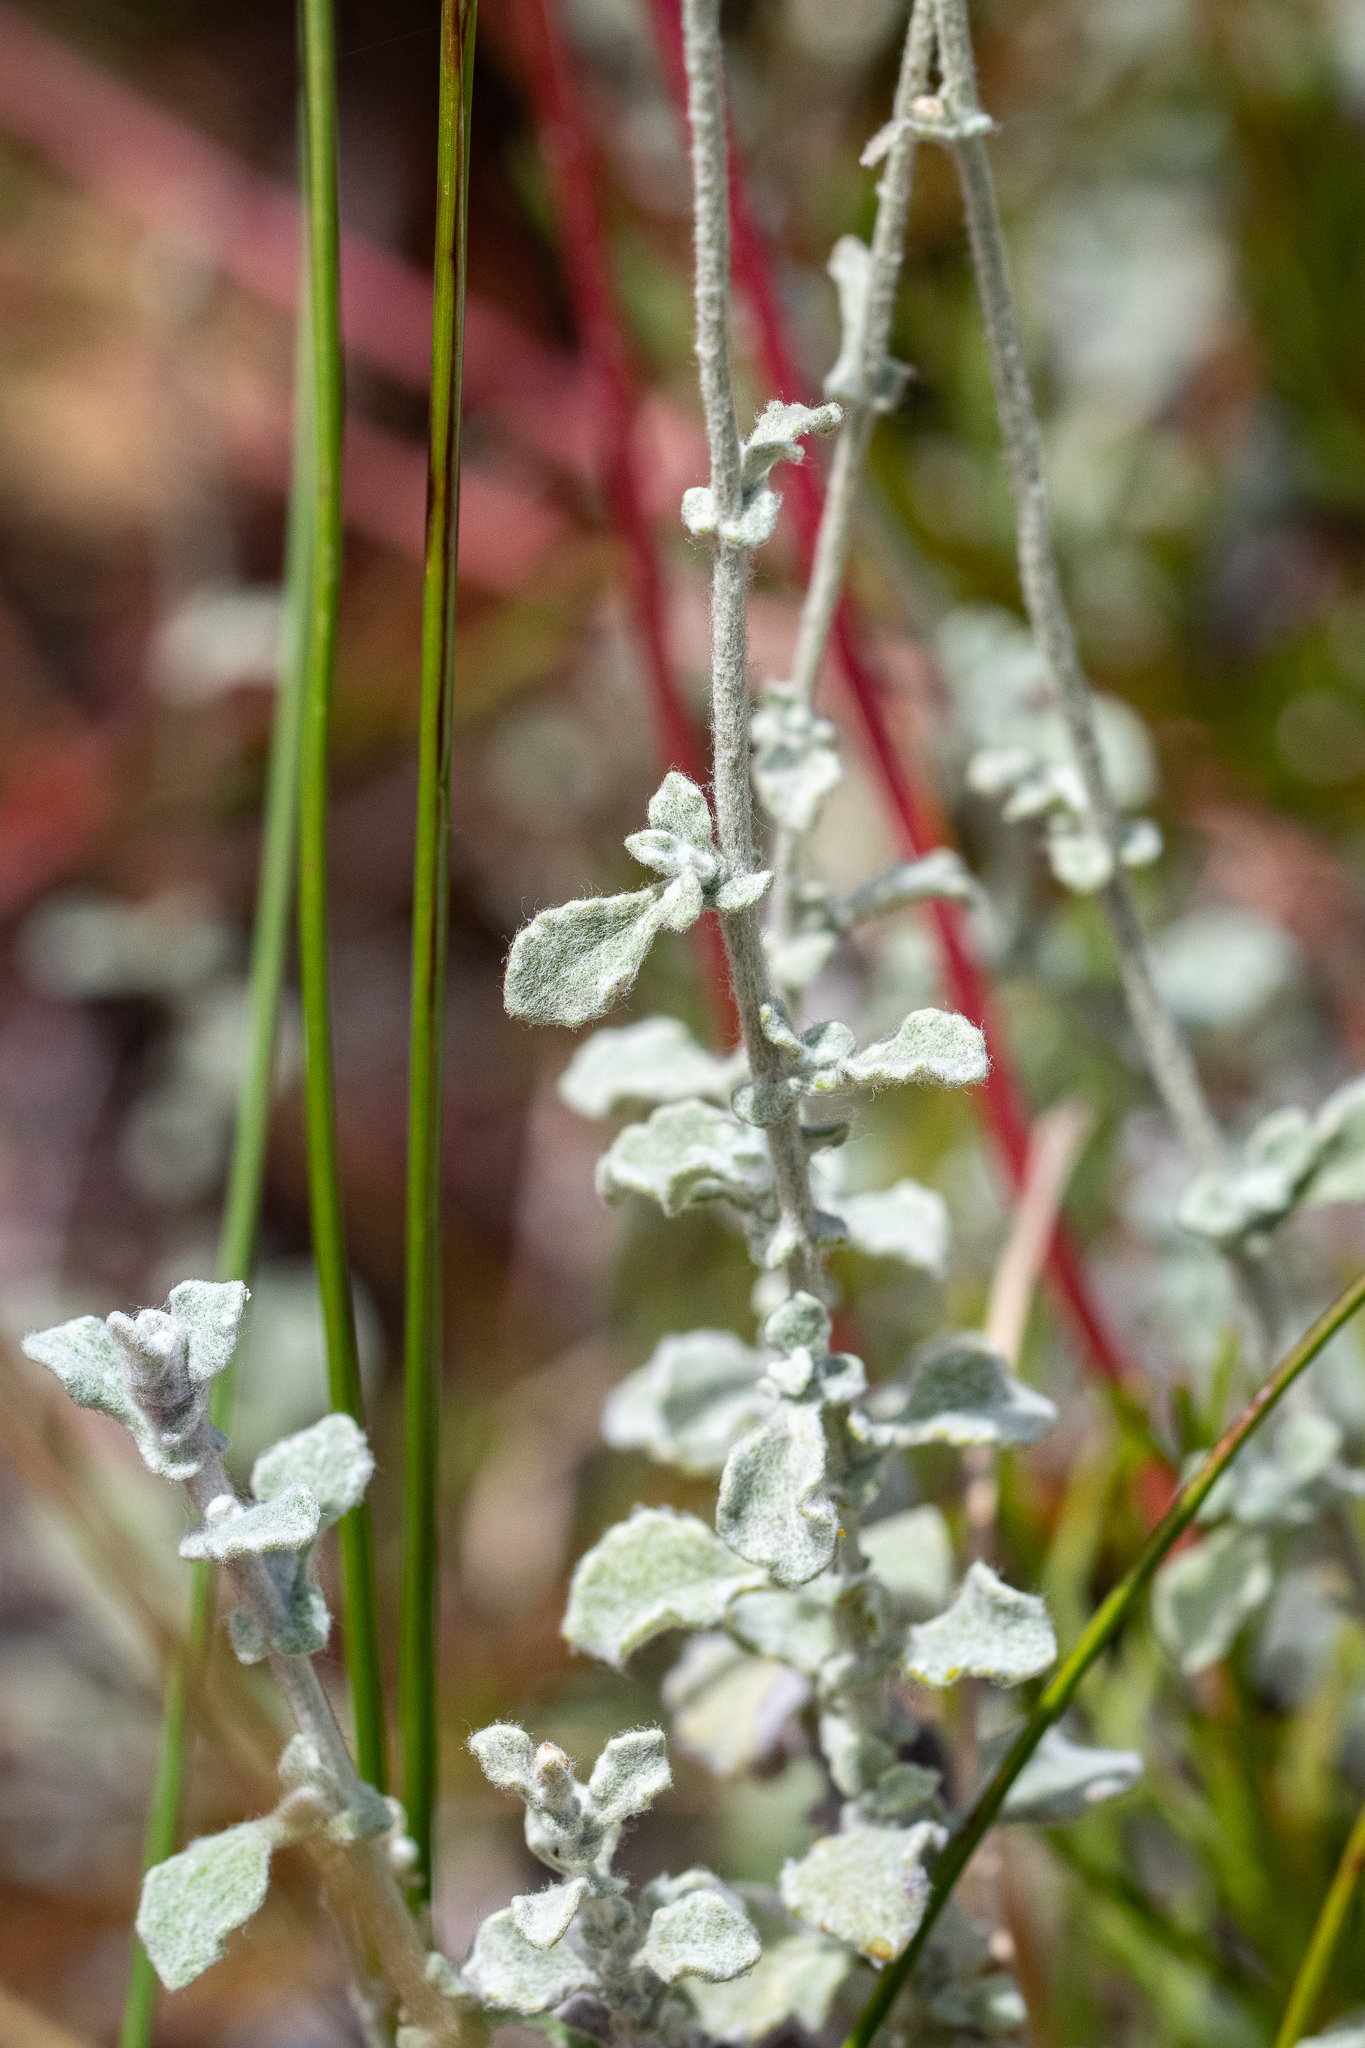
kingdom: Plantae
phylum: Tracheophyta
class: Magnoliopsida
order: Asterales
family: Asteraceae
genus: Helichrysum
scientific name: Helichrysum patulum
